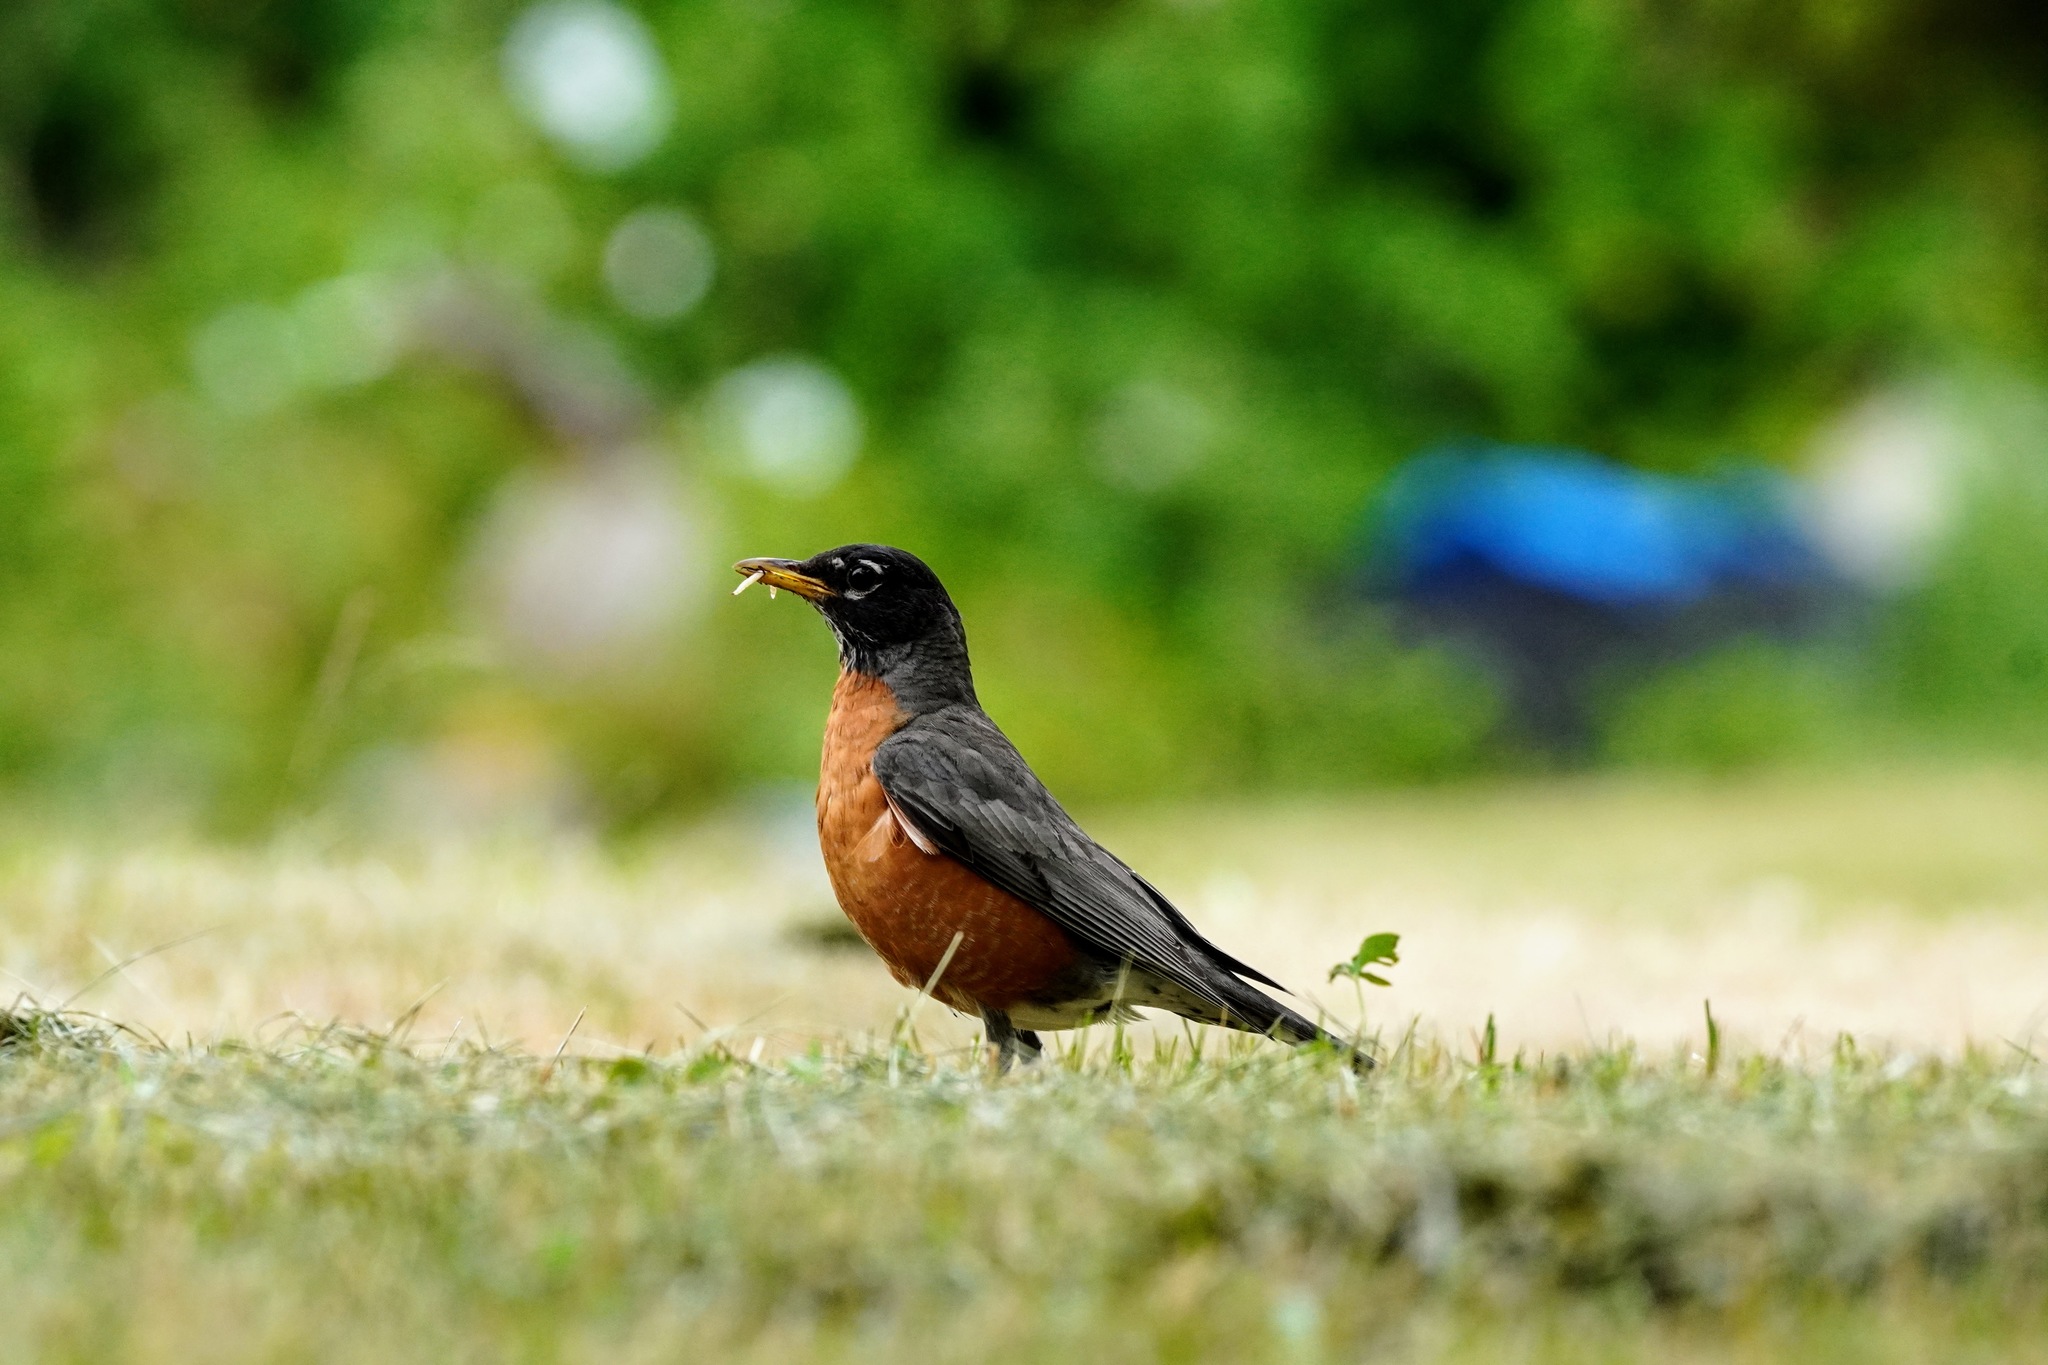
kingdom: Animalia
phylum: Chordata
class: Aves
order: Passeriformes
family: Turdidae
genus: Turdus
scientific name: Turdus migratorius
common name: American robin
